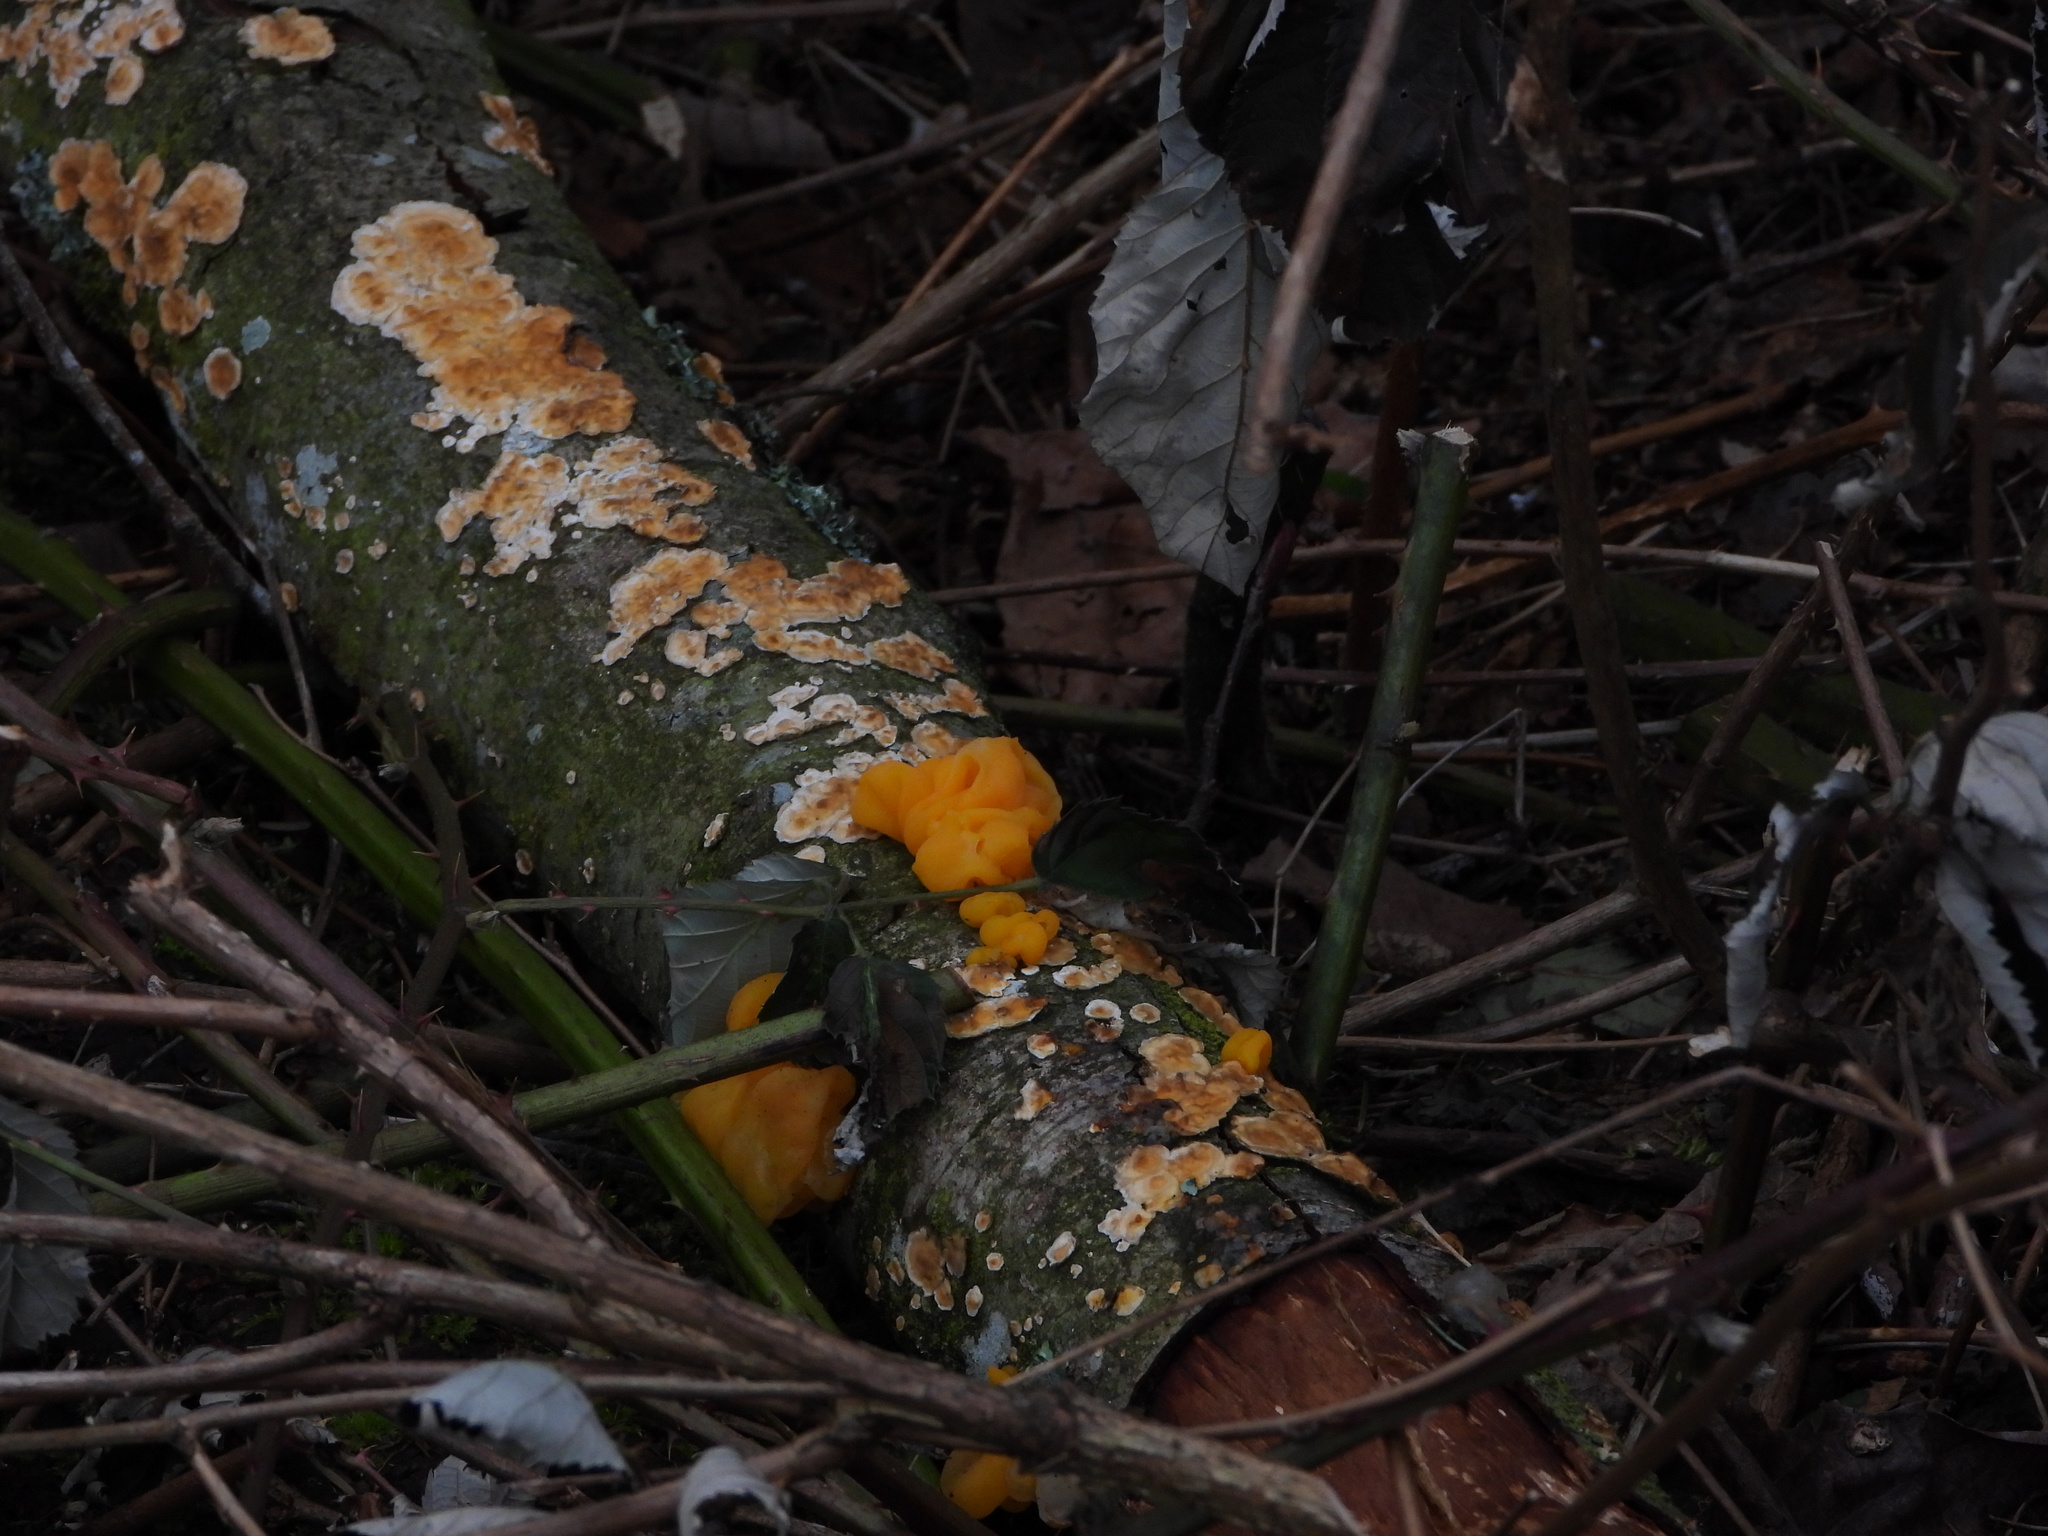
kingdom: Fungi
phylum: Basidiomycota
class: Tremellomycetes
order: Tremellales
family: Naemateliaceae
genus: Naematelia
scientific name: Naematelia aurantia
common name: Golden ear
